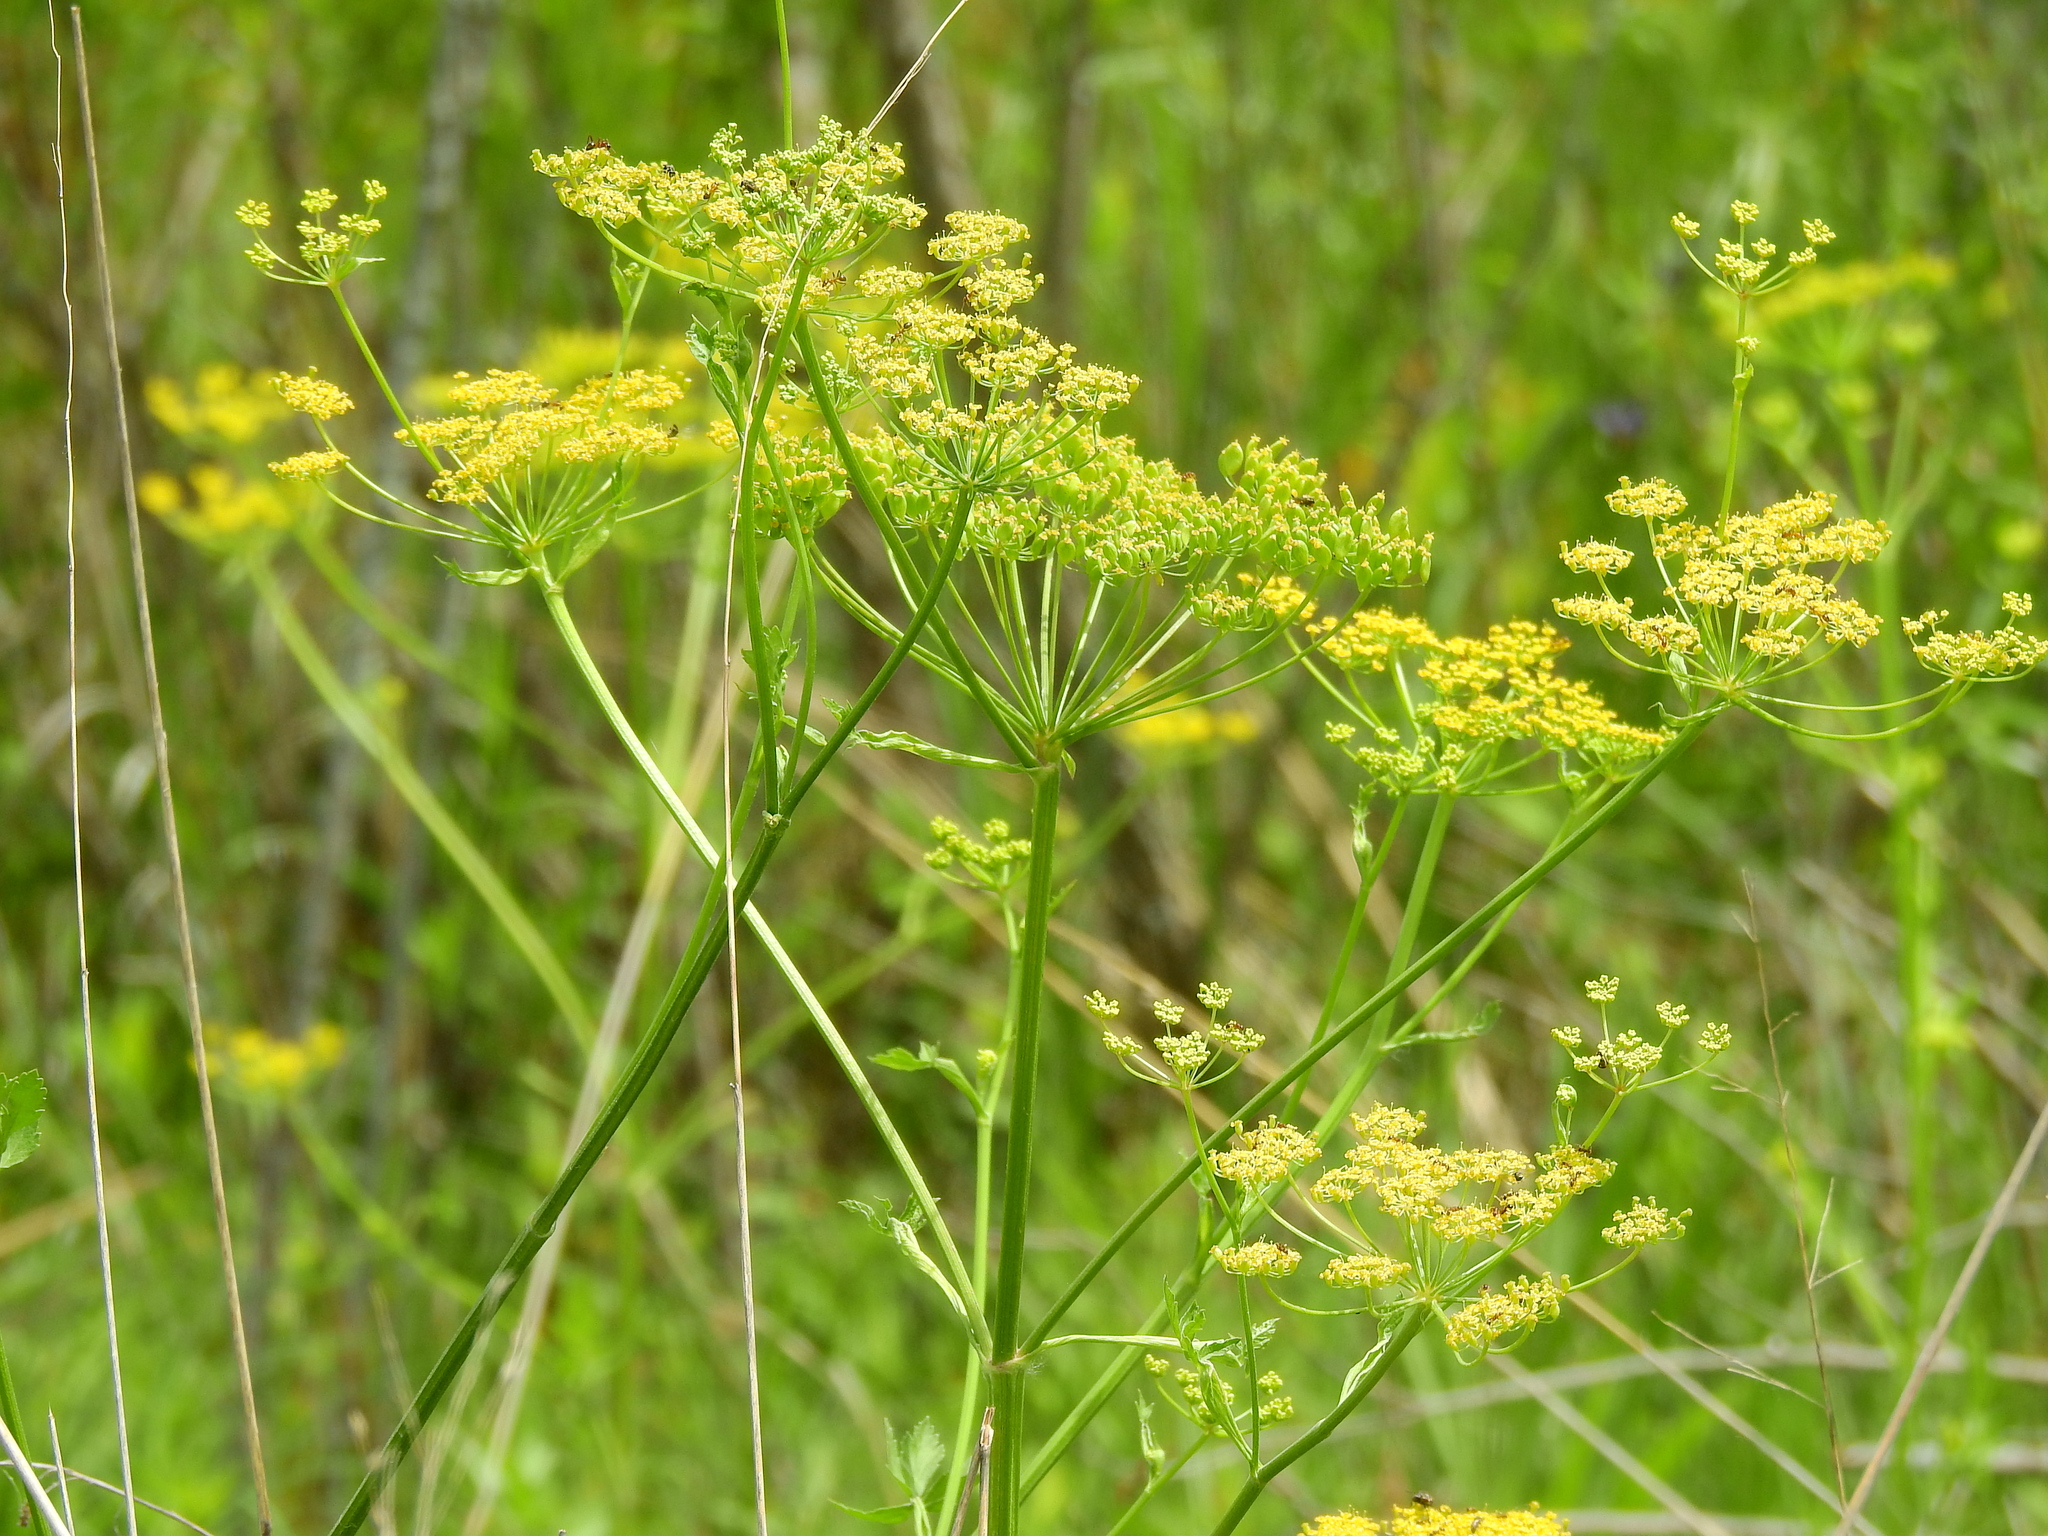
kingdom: Plantae
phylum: Tracheophyta
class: Magnoliopsida
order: Apiales
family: Apiaceae
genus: Pastinaca
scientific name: Pastinaca sativa
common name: Wild parsnip
